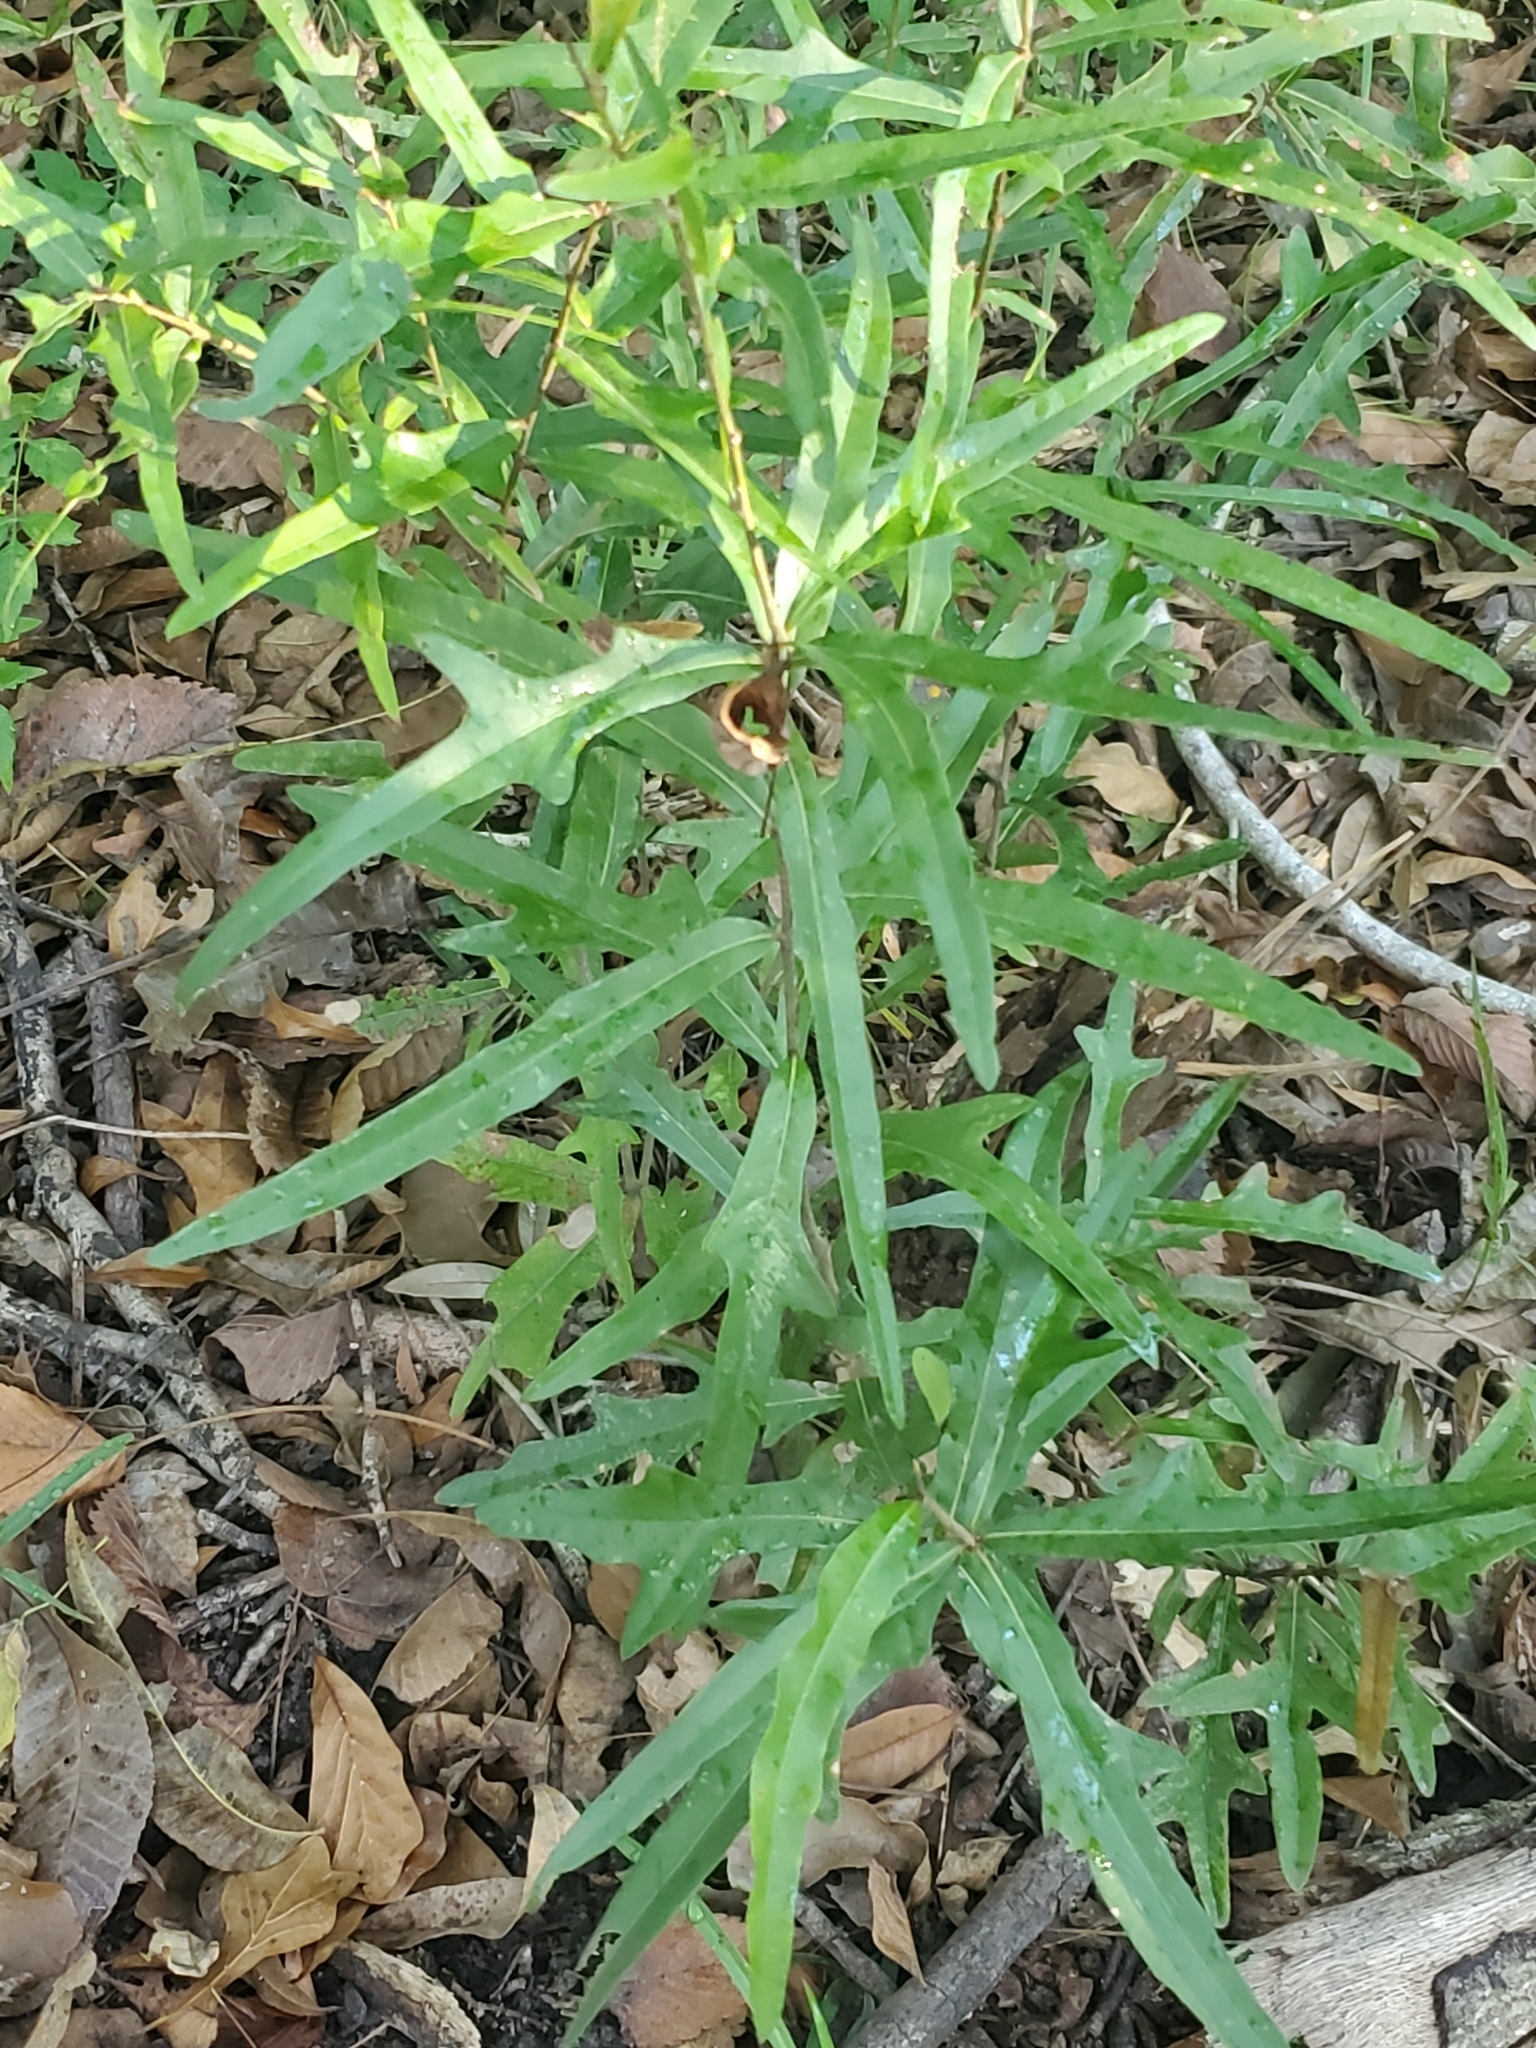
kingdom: Plantae
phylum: Tracheophyta
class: Magnoliopsida
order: Fagales
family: Fagaceae
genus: Quercus
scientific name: Quercus nigra
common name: Water oak
